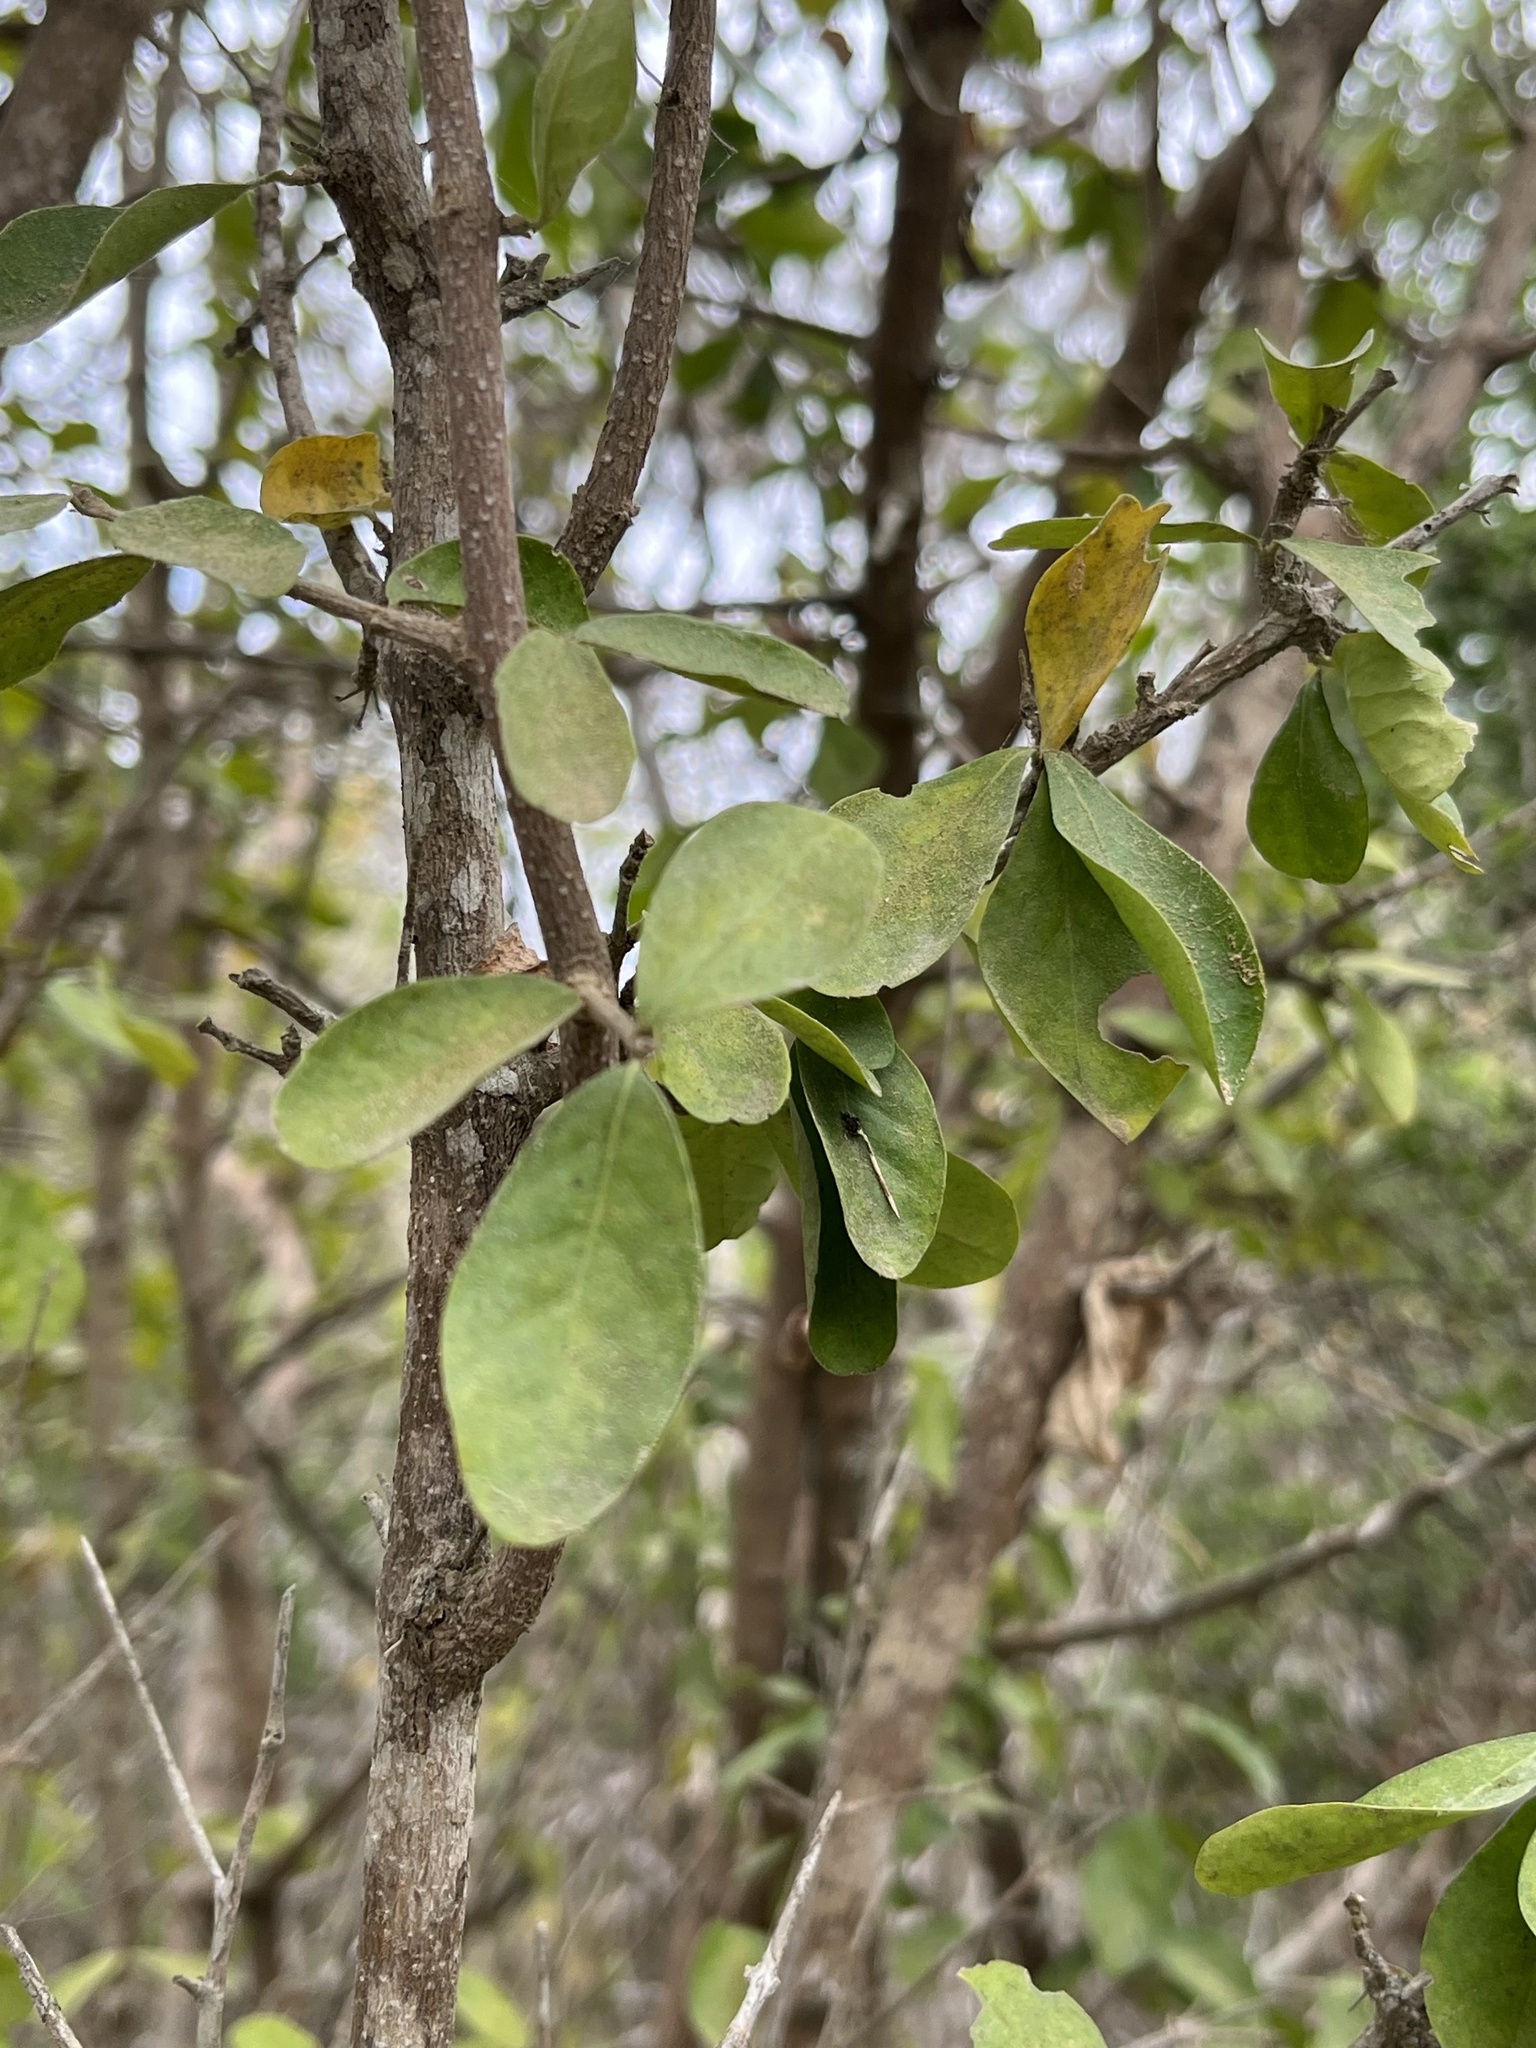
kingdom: Plantae
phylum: Tracheophyta
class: Magnoliopsida
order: Ericales
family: Sapotaceae
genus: Sideroxylon
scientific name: Sideroxylon obtusifolium
